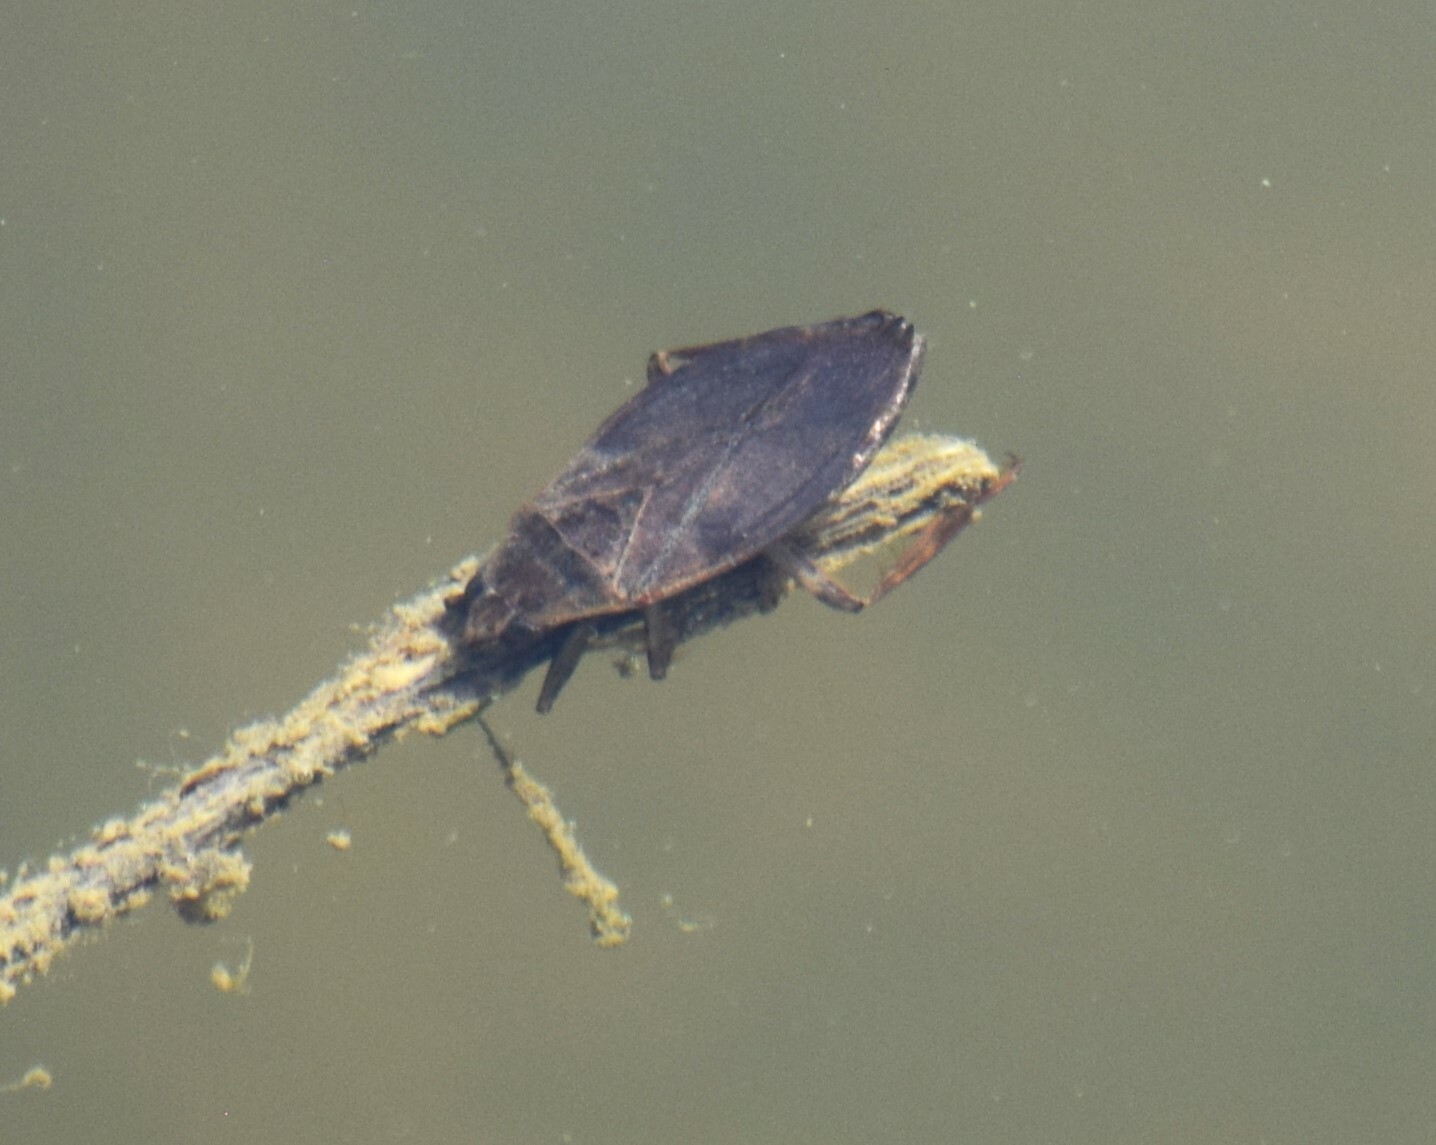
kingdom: Animalia
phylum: Arthropoda
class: Insecta
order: Hemiptera
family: Belostomatidae
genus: Belostoma
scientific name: Belostoma
